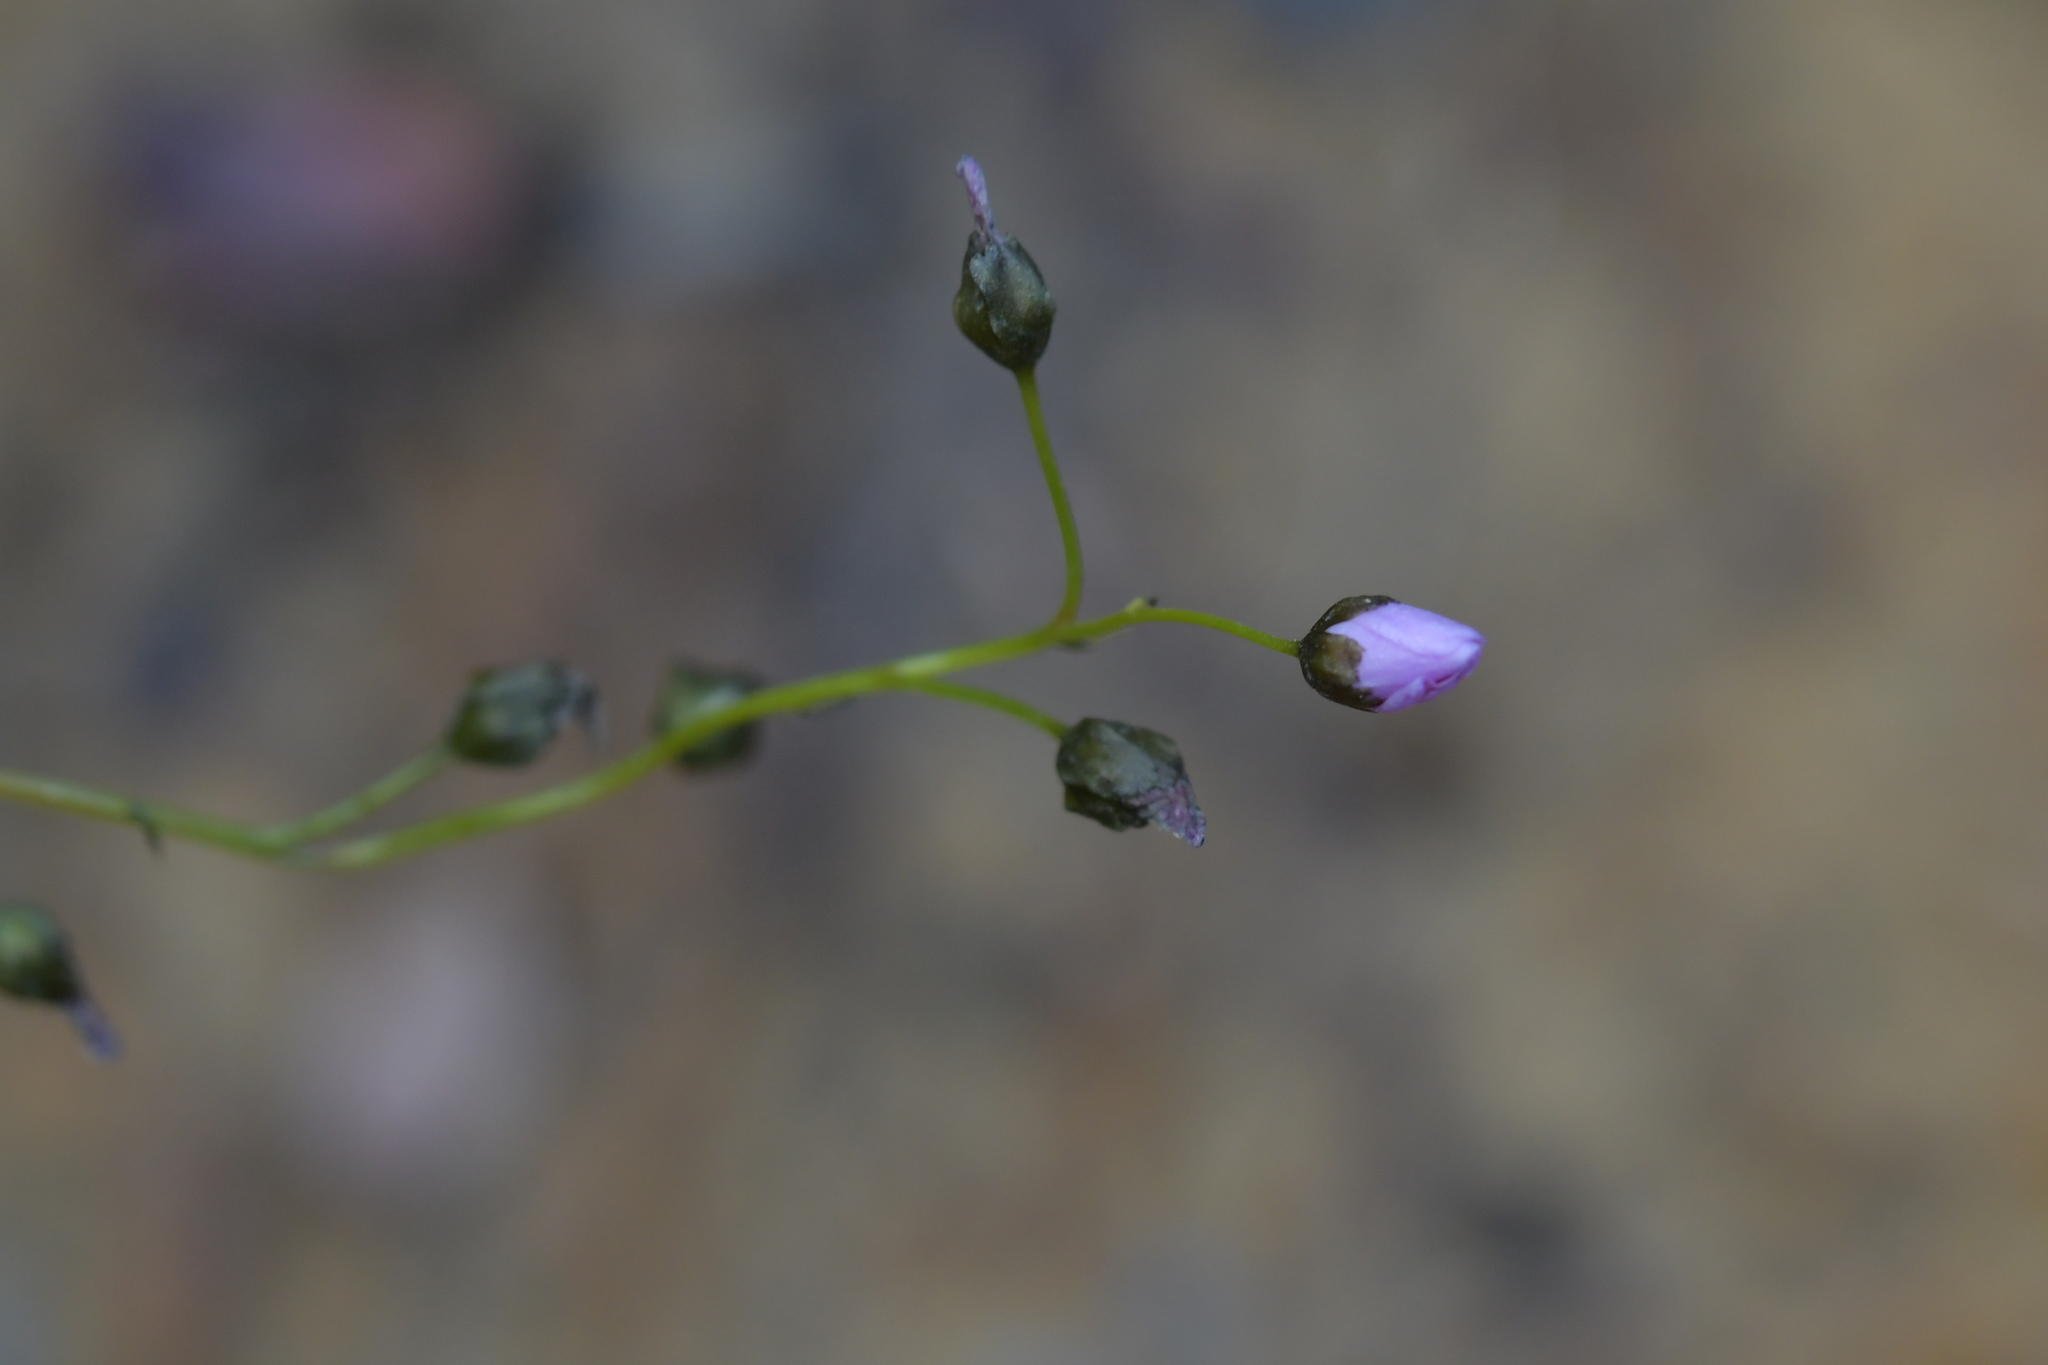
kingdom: Plantae
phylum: Tracheophyta
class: Magnoliopsida
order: Caryophyllales
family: Droseraceae
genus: Drosera
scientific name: Drosera peltata
